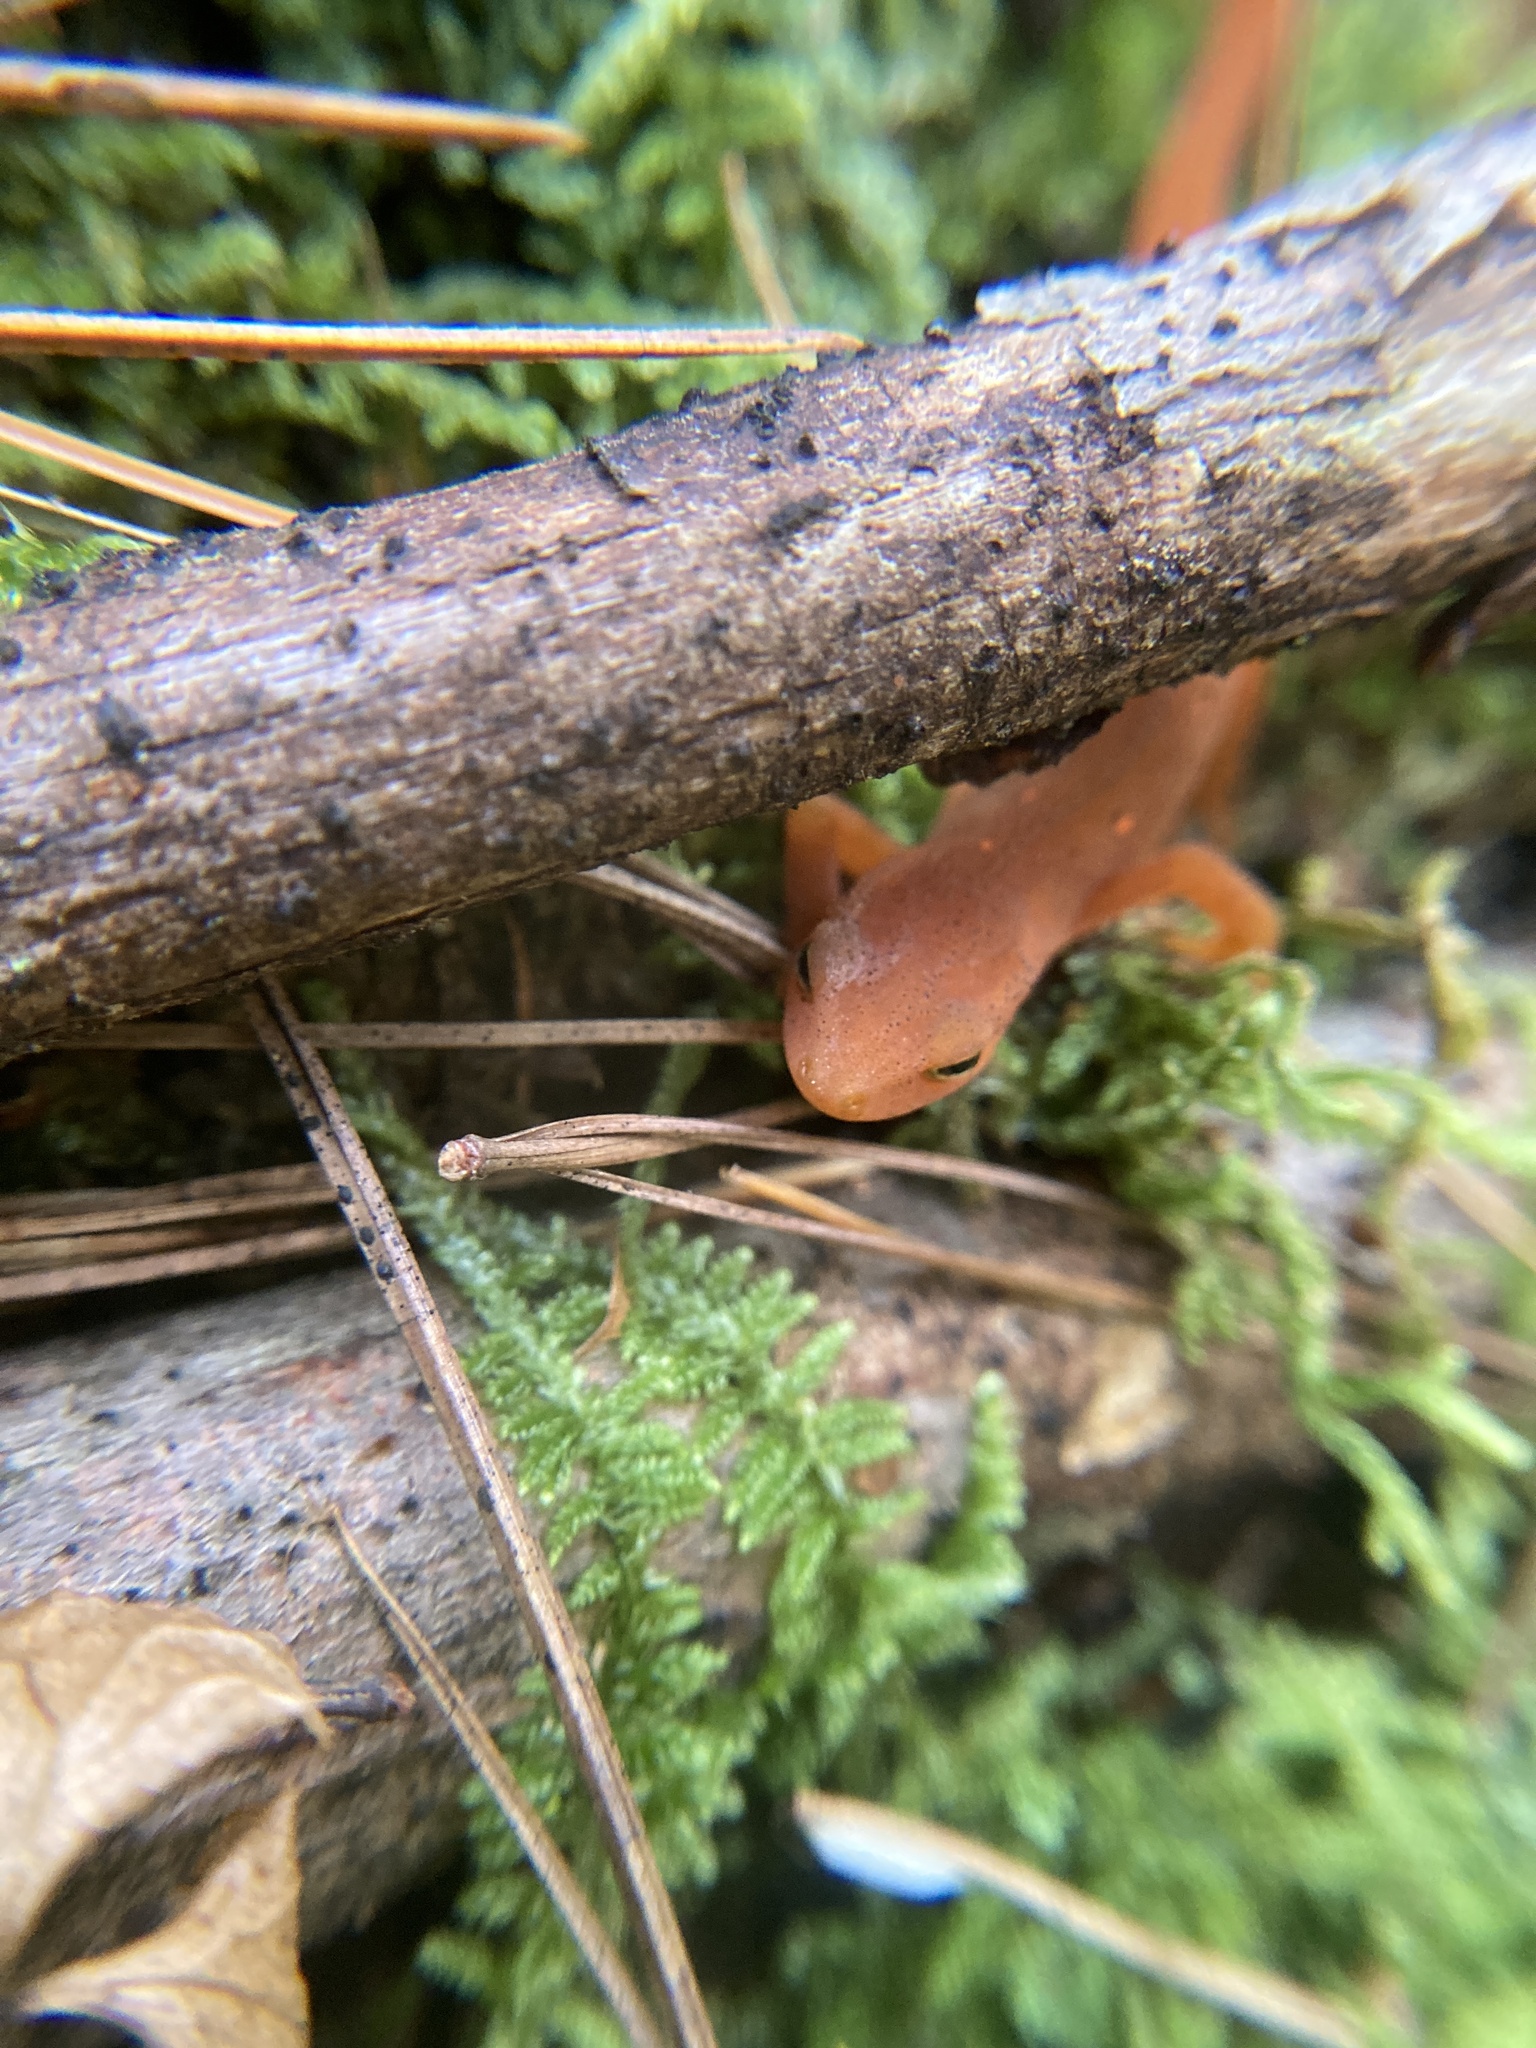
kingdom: Animalia
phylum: Chordata
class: Amphibia
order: Caudata
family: Salamandridae
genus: Notophthalmus
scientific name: Notophthalmus viridescens
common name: Eastern newt
